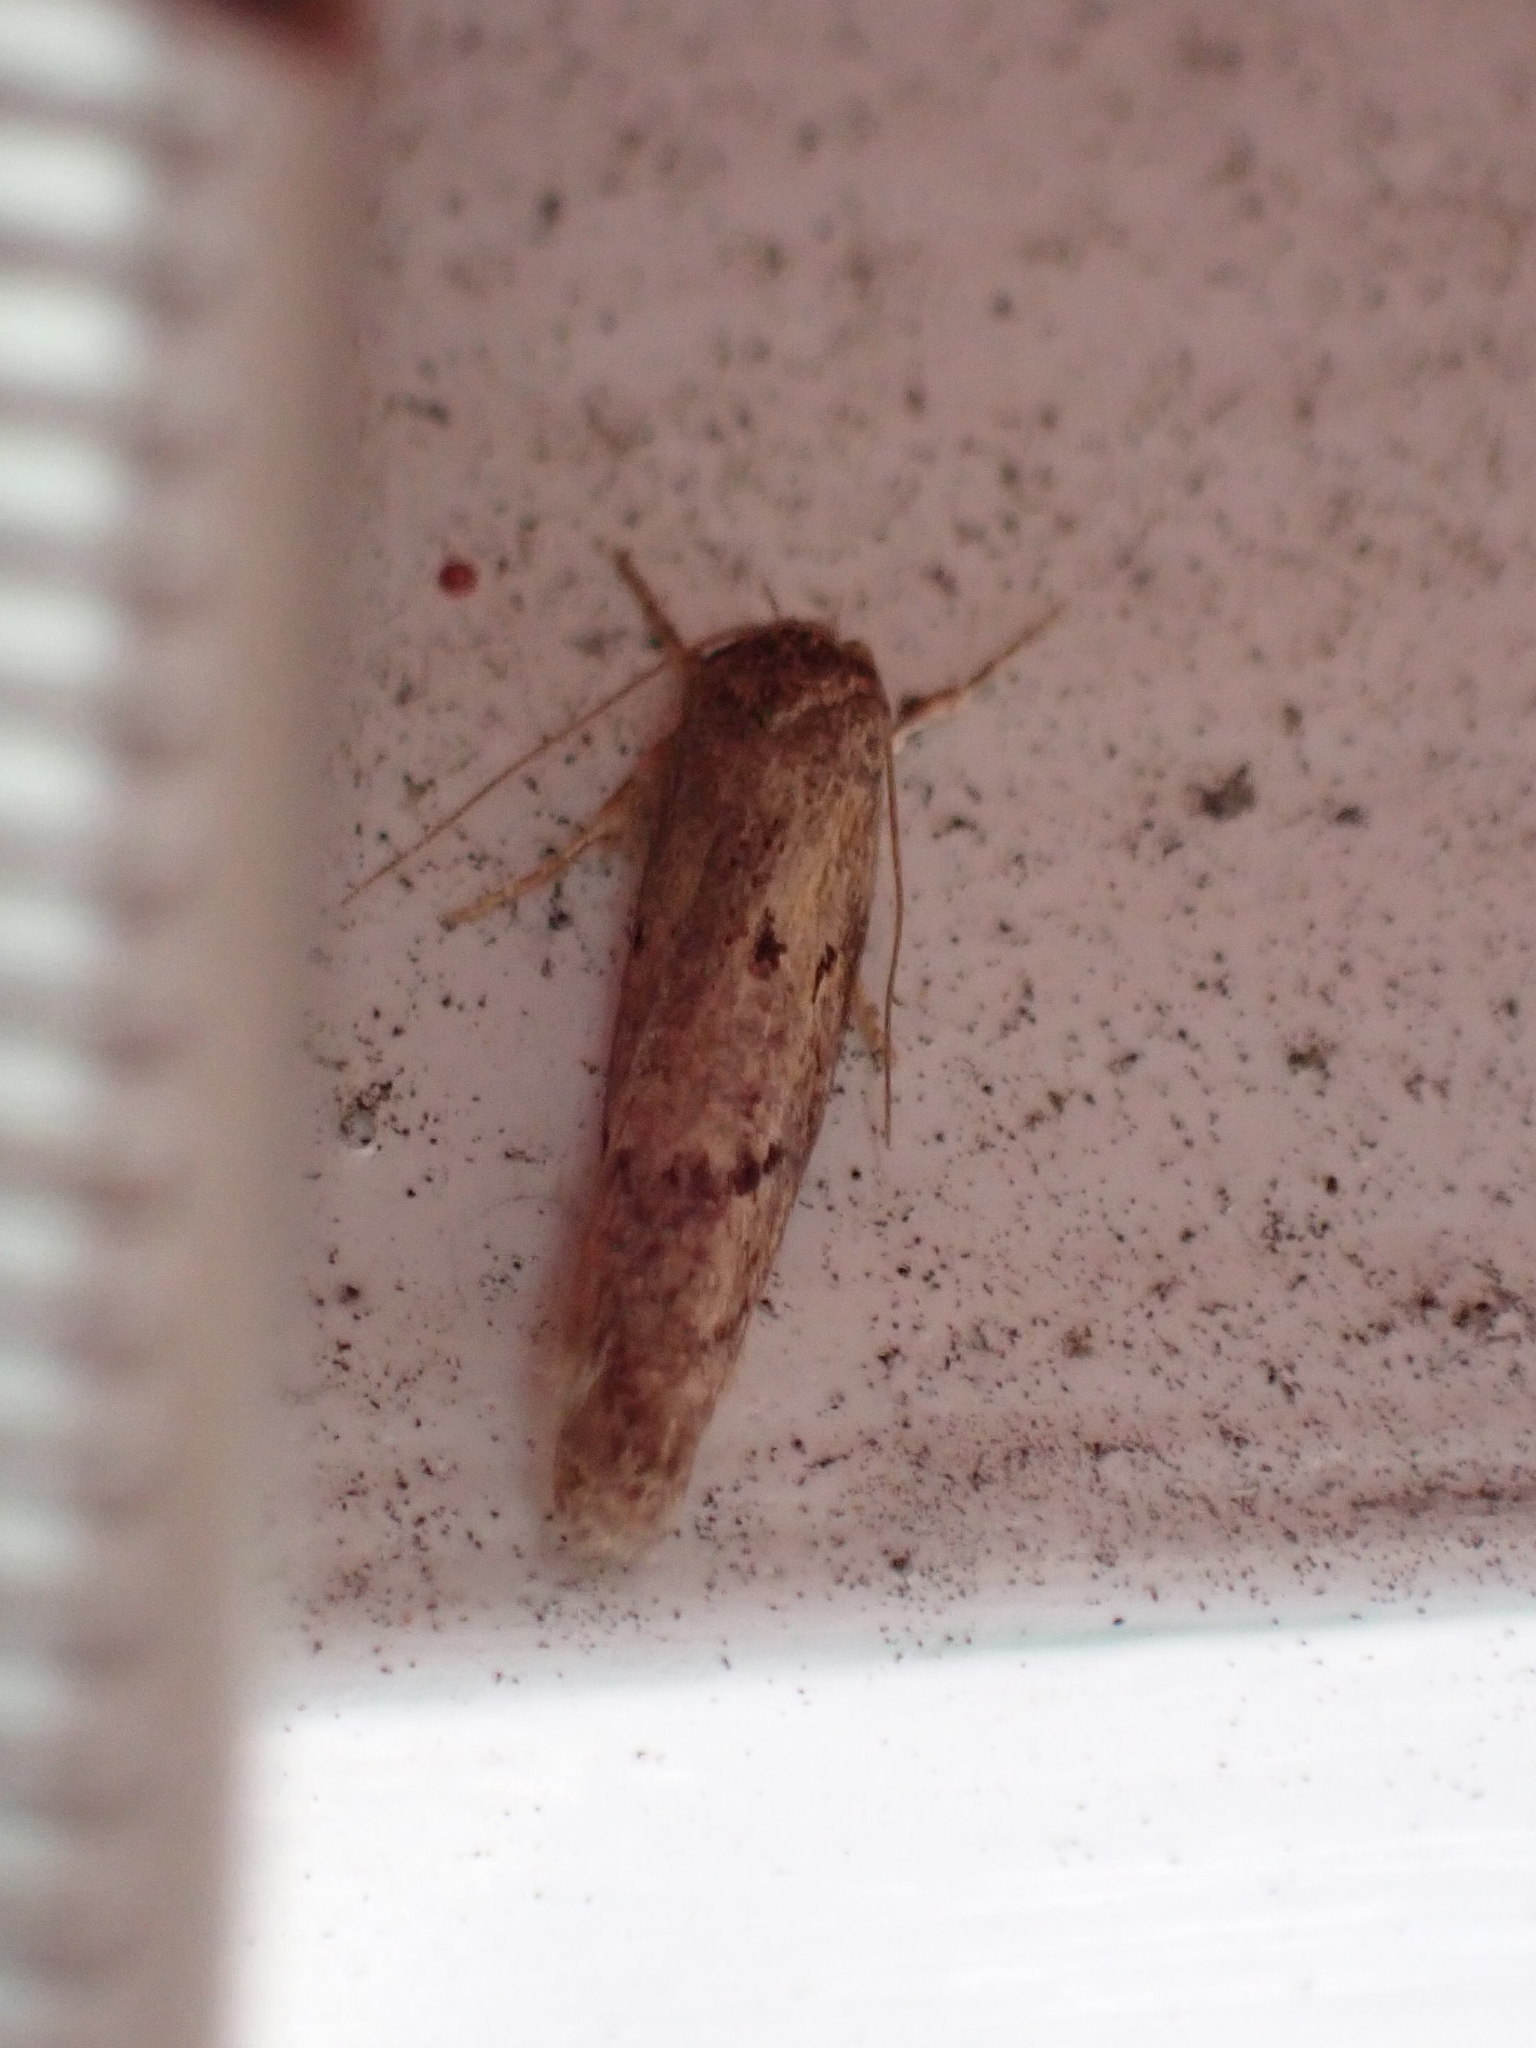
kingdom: Animalia
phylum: Arthropoda
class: Insecta
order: Lepidoptera
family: Oecophoridae
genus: Leptocroca
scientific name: Leptocroca
